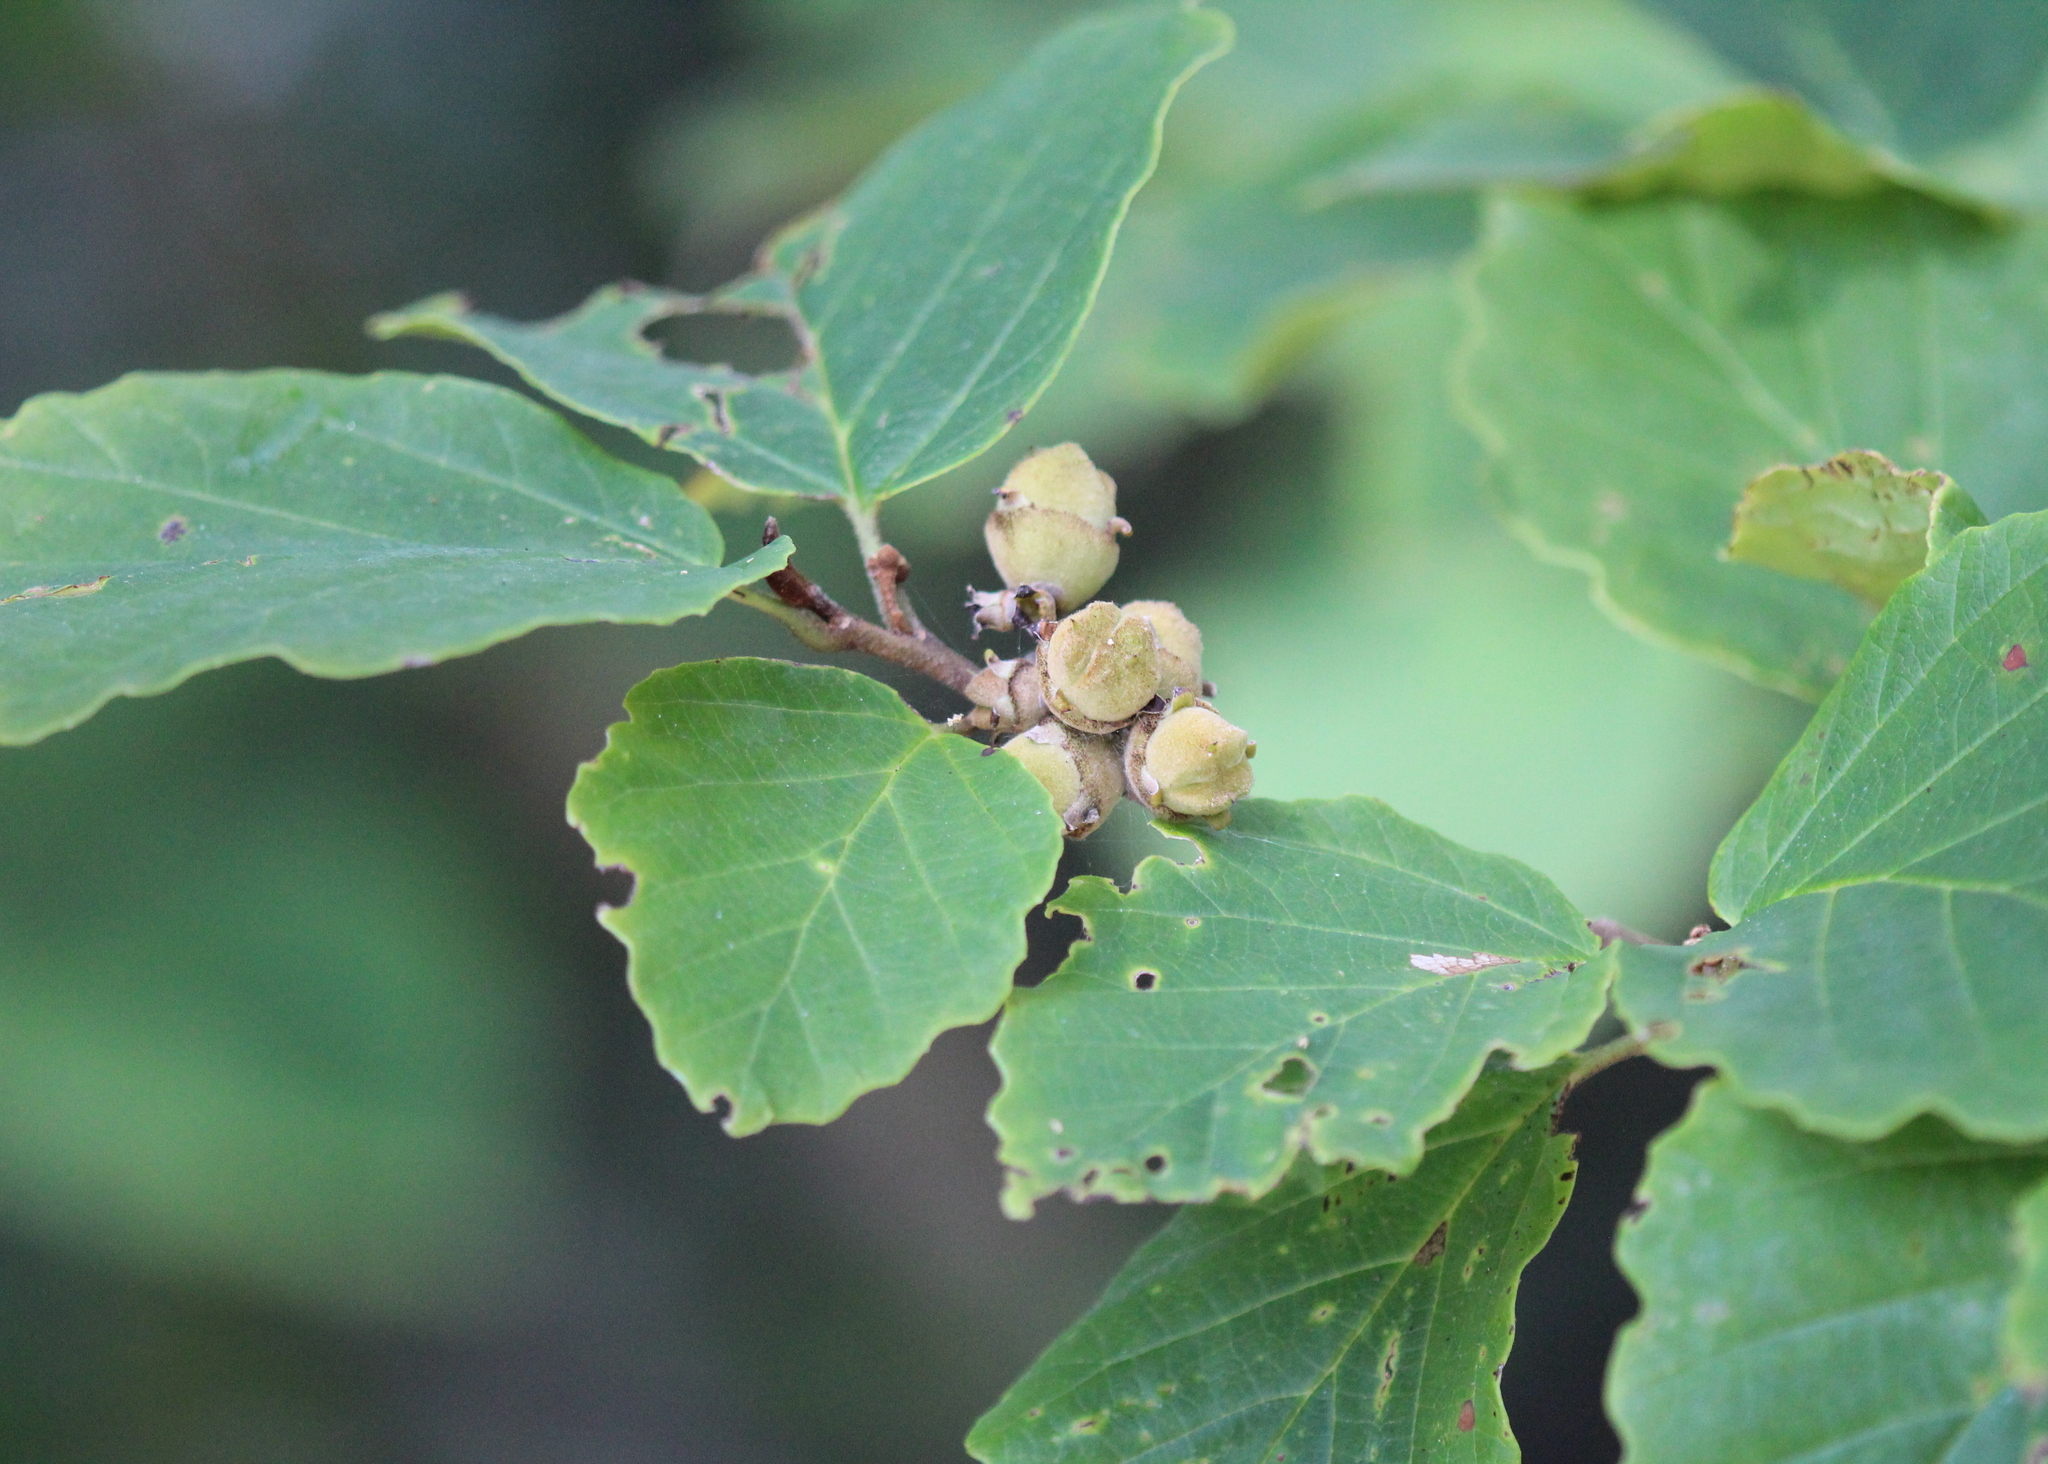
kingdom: Plantae
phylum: Tracheophyta
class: Magnoliopsida
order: Saxifragales
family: Hamamelidaceae
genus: Hamamelis
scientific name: Hamamelis virginiana
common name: Witch-hazel
